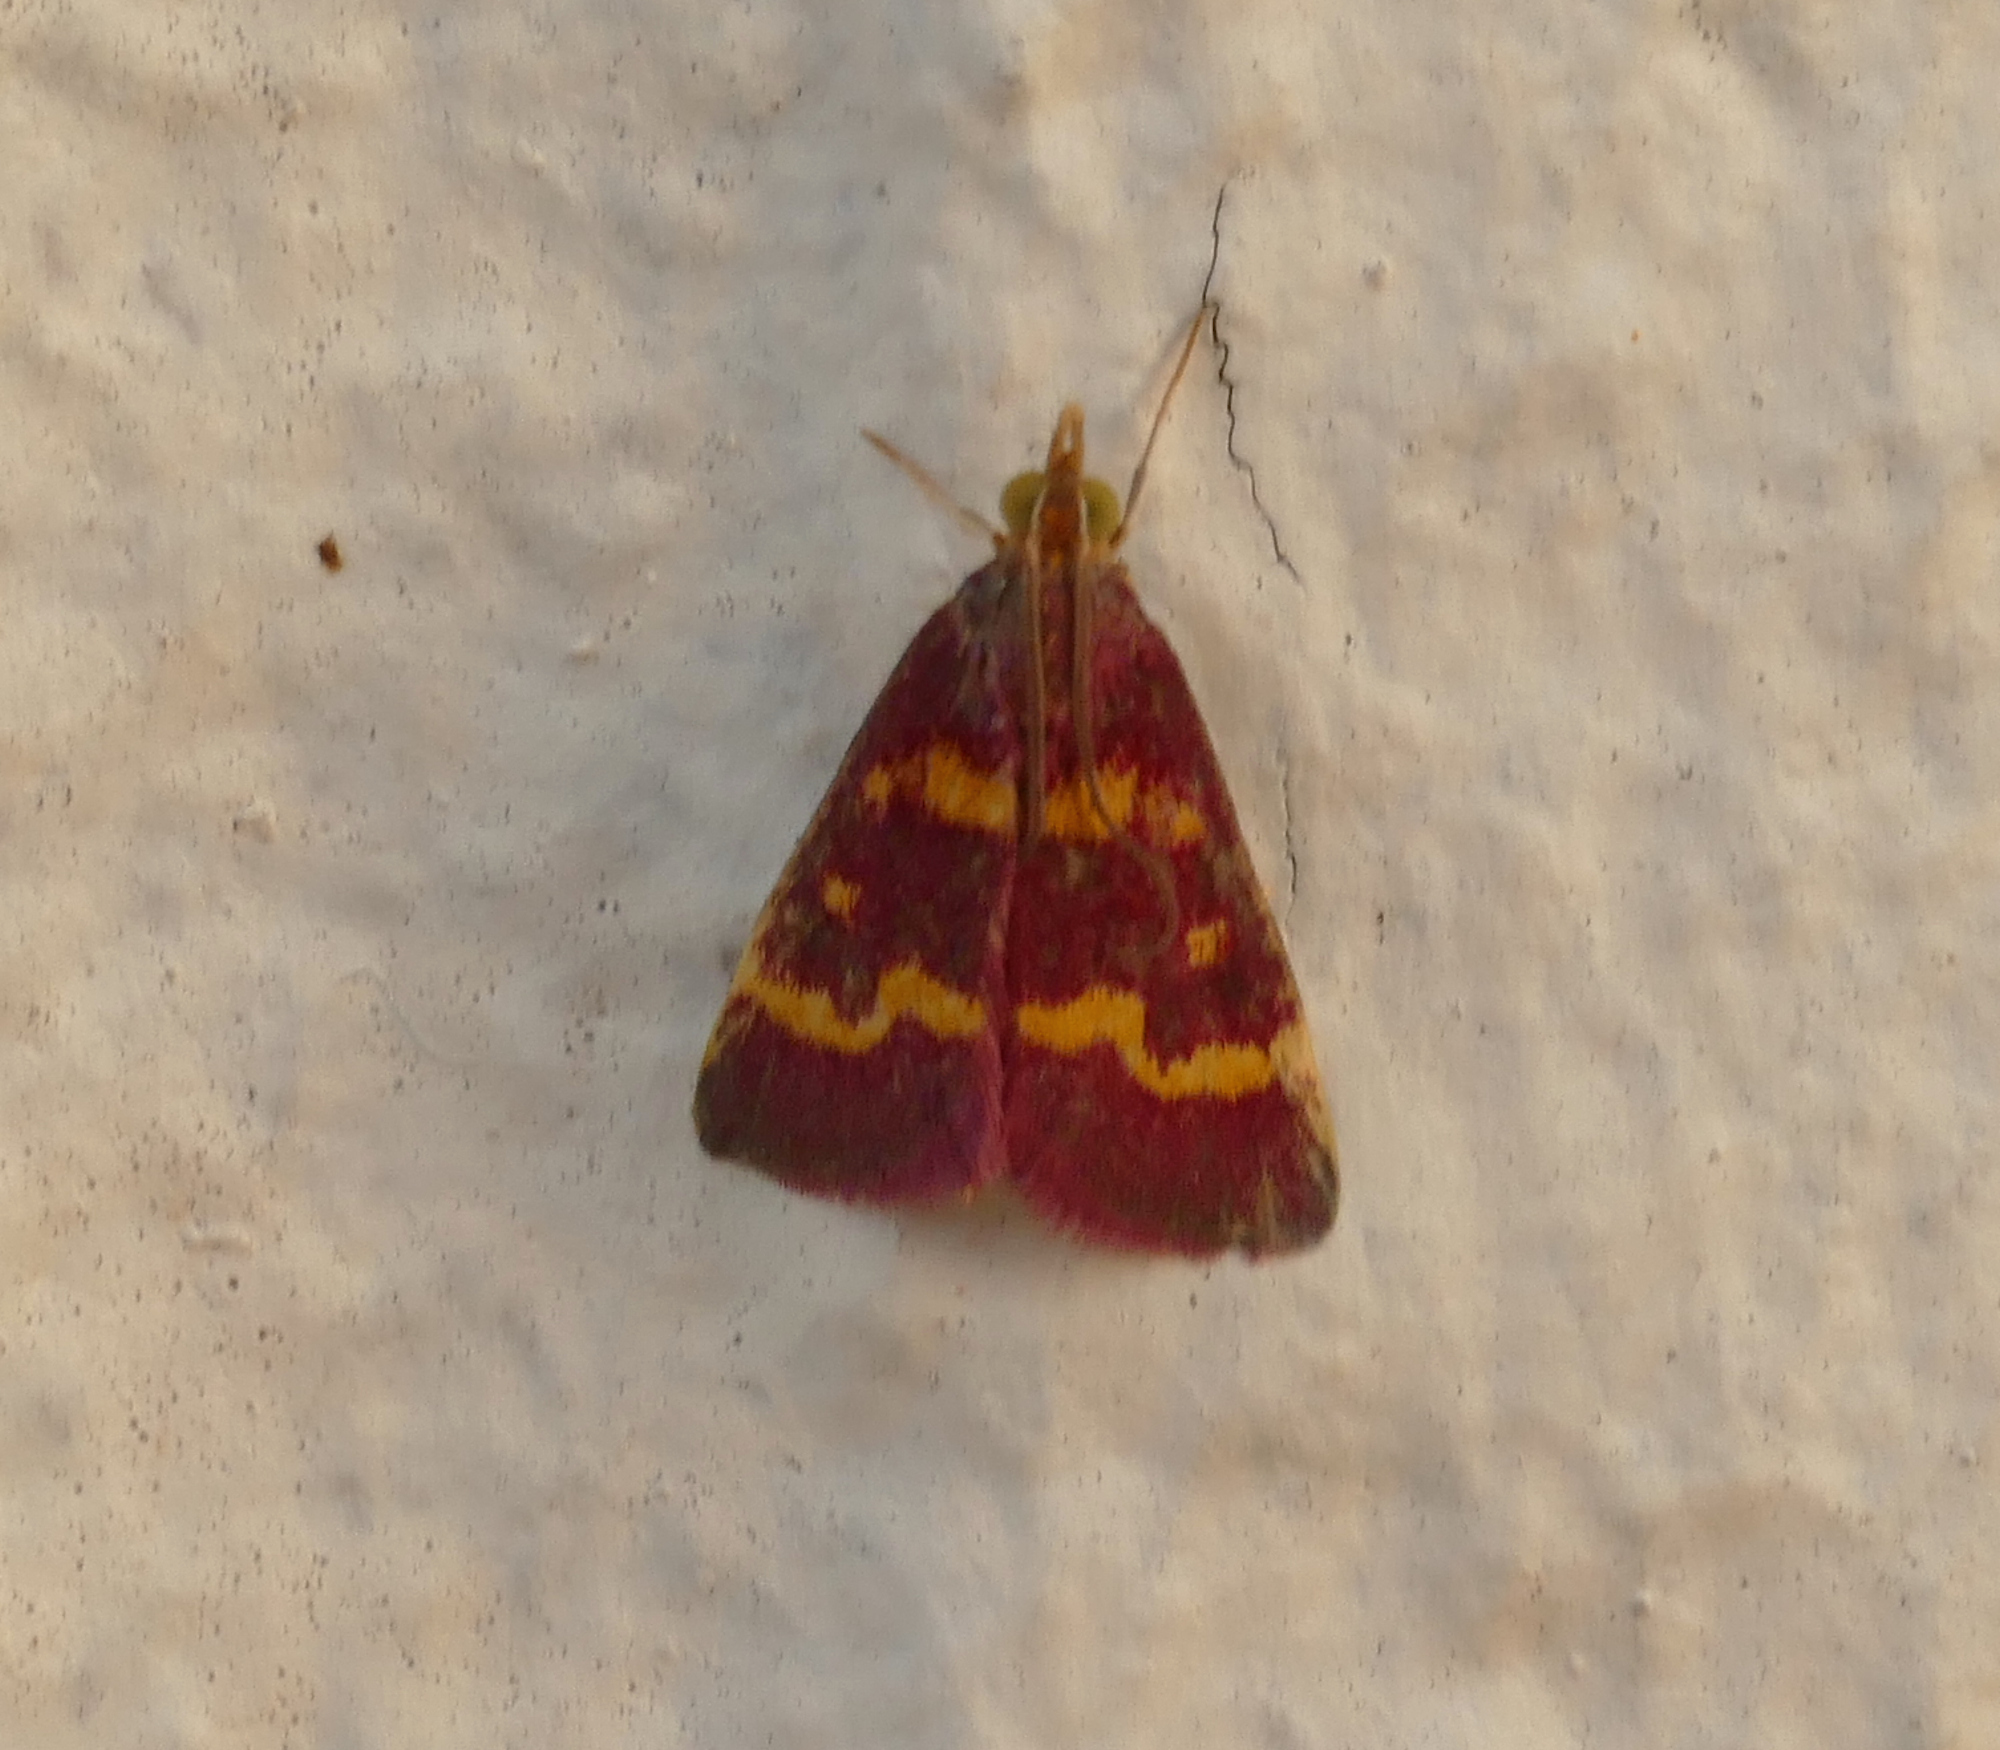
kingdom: Animalia
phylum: Arthropoda
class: Insecta
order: Lepidoptera
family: Crambidae
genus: Pyrausta
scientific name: Pyrausta tyralis
